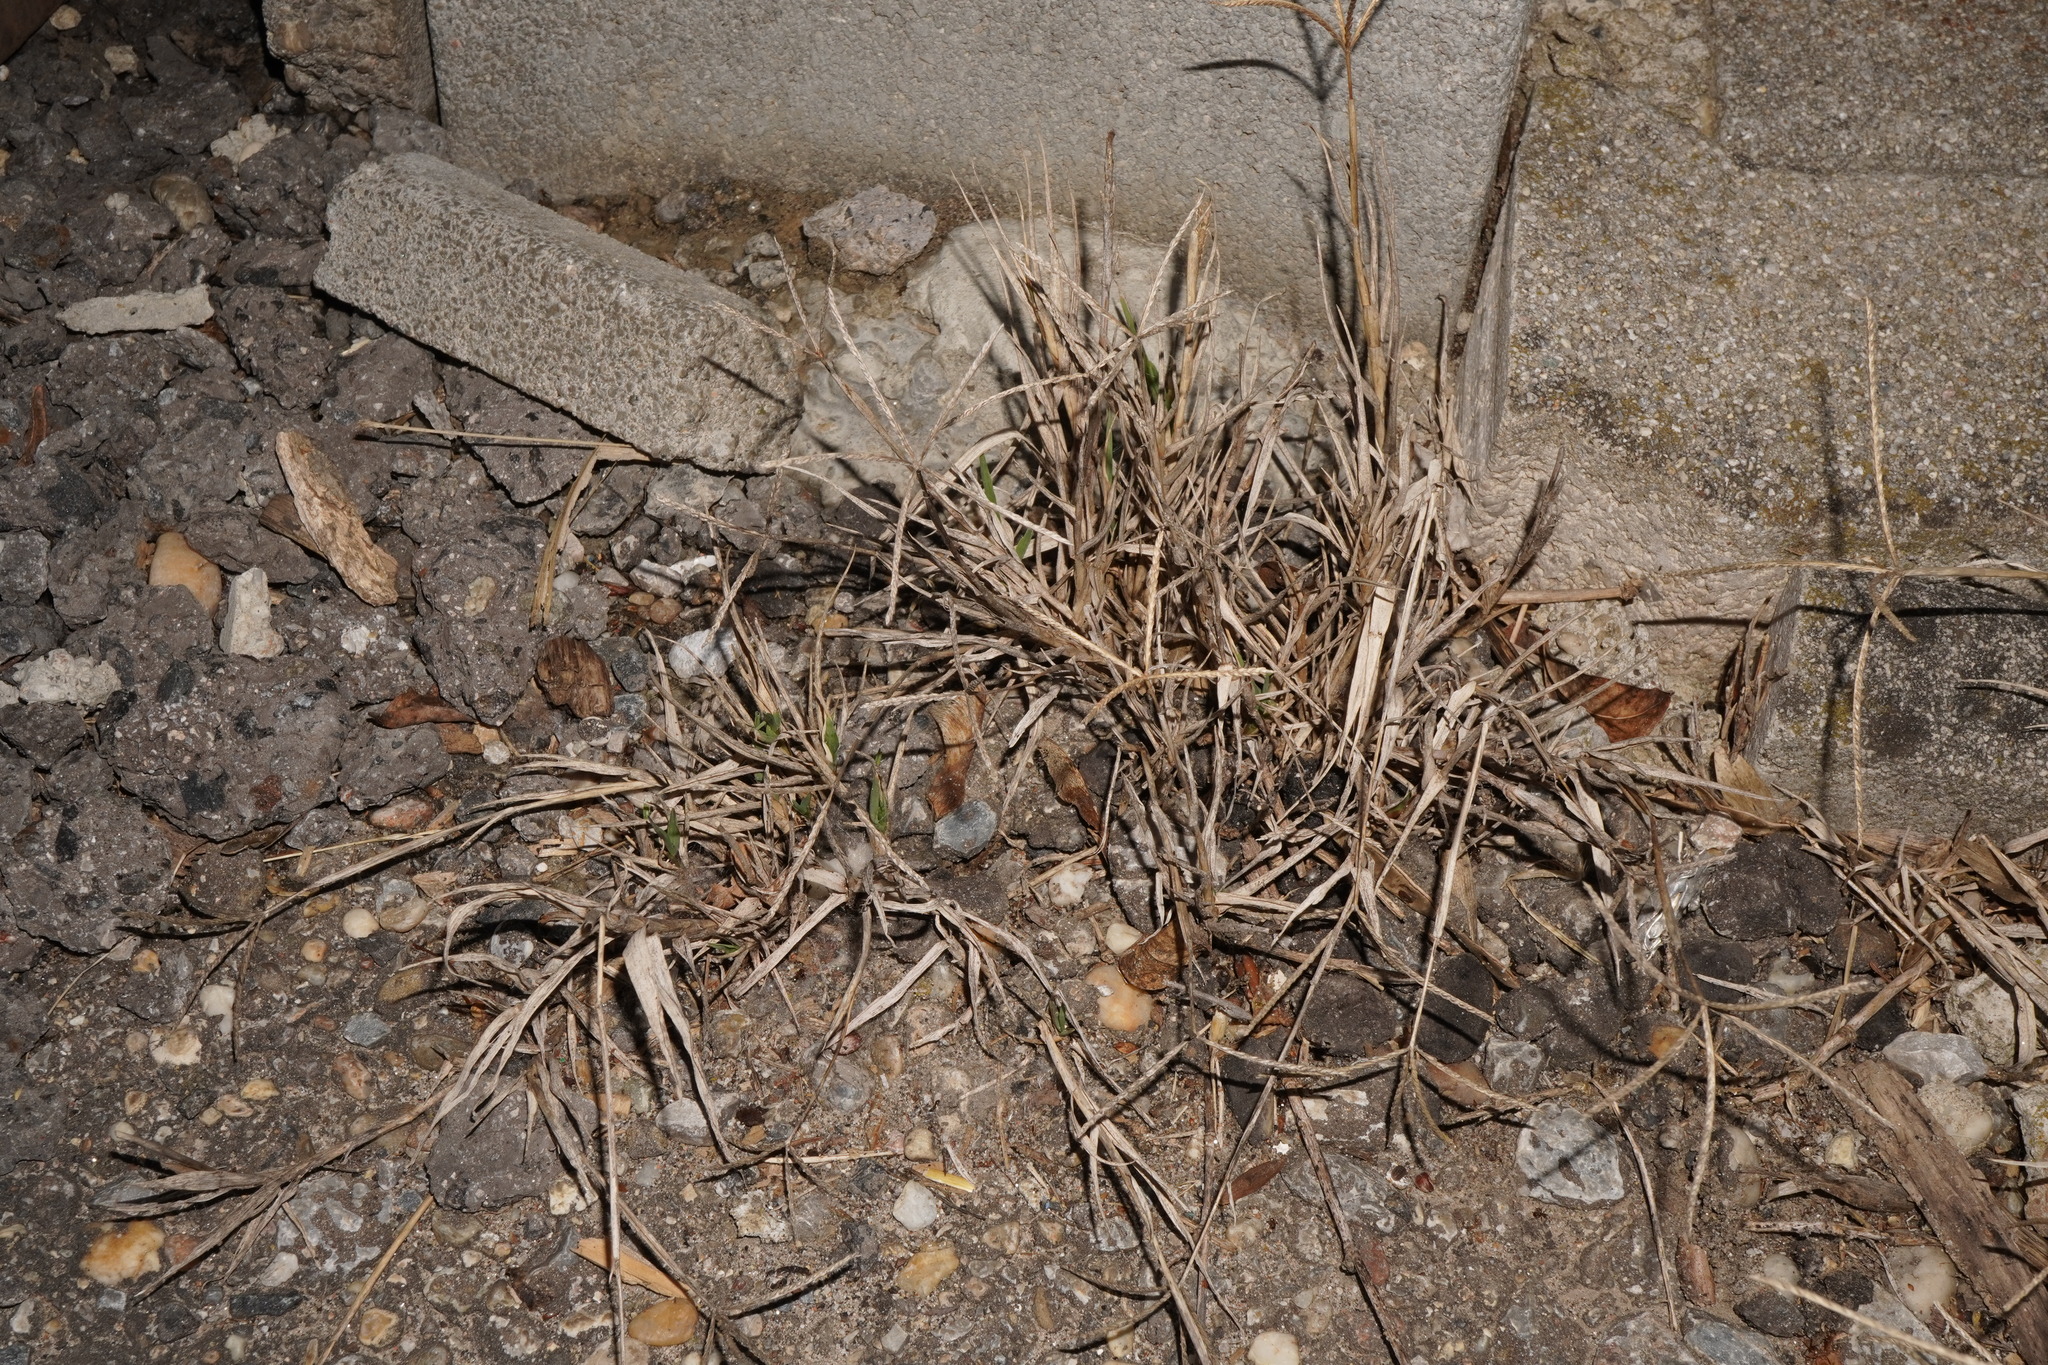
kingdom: Plantae
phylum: Tracheophyta
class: Liliopsida
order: Poales
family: Poaceae
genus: Cynodon
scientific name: Cynodon dactylon
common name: Bermuda grass
